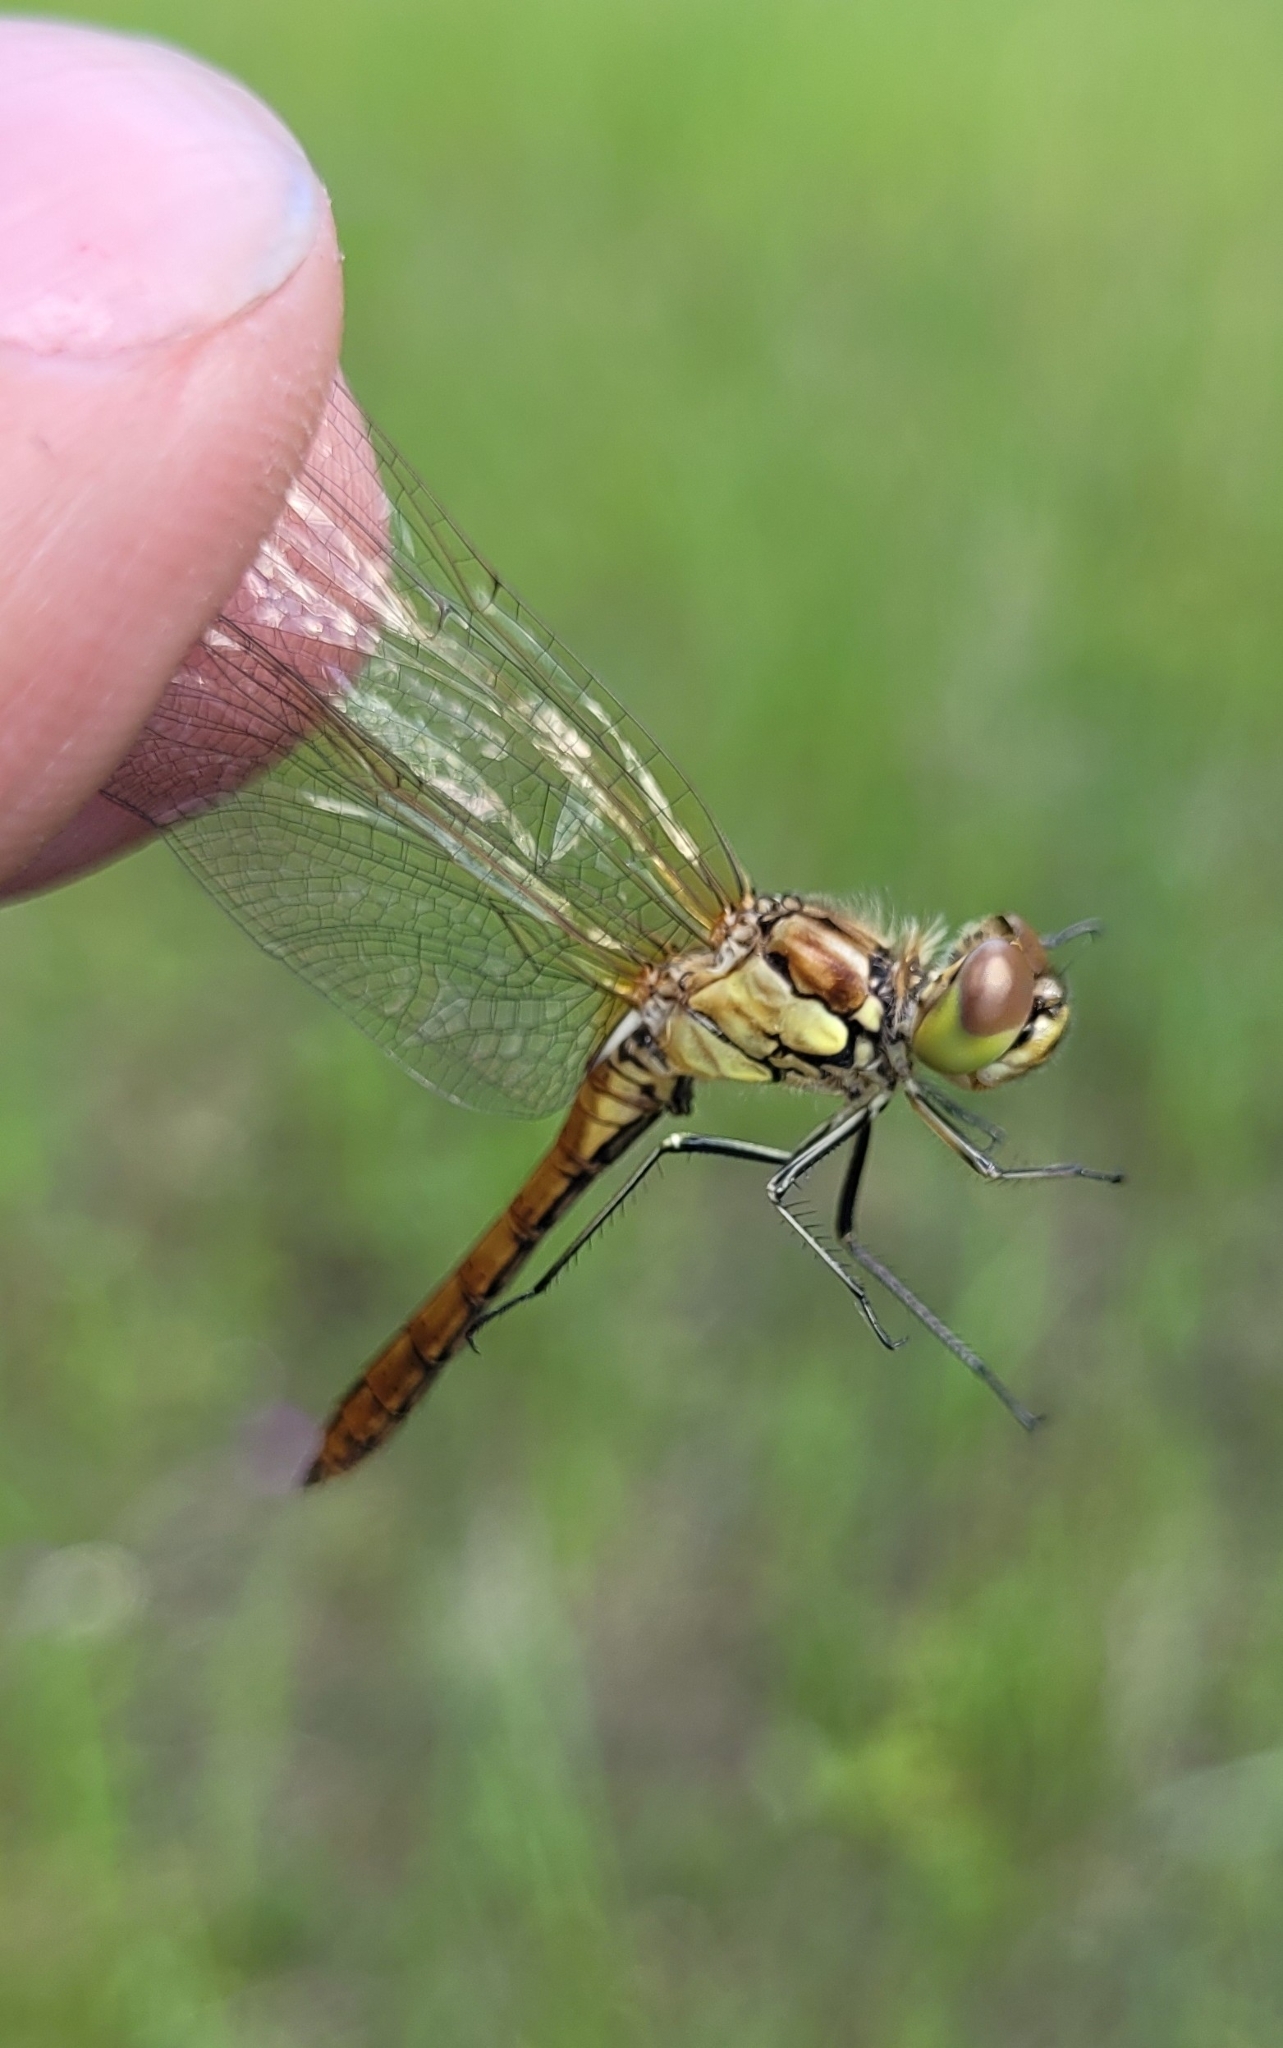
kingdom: Animalia
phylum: Arthropoda
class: Insecta
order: Odonata
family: Libellulidae
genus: Sympetrum
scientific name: Sympetrum vulgatum
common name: Vagrant darter
